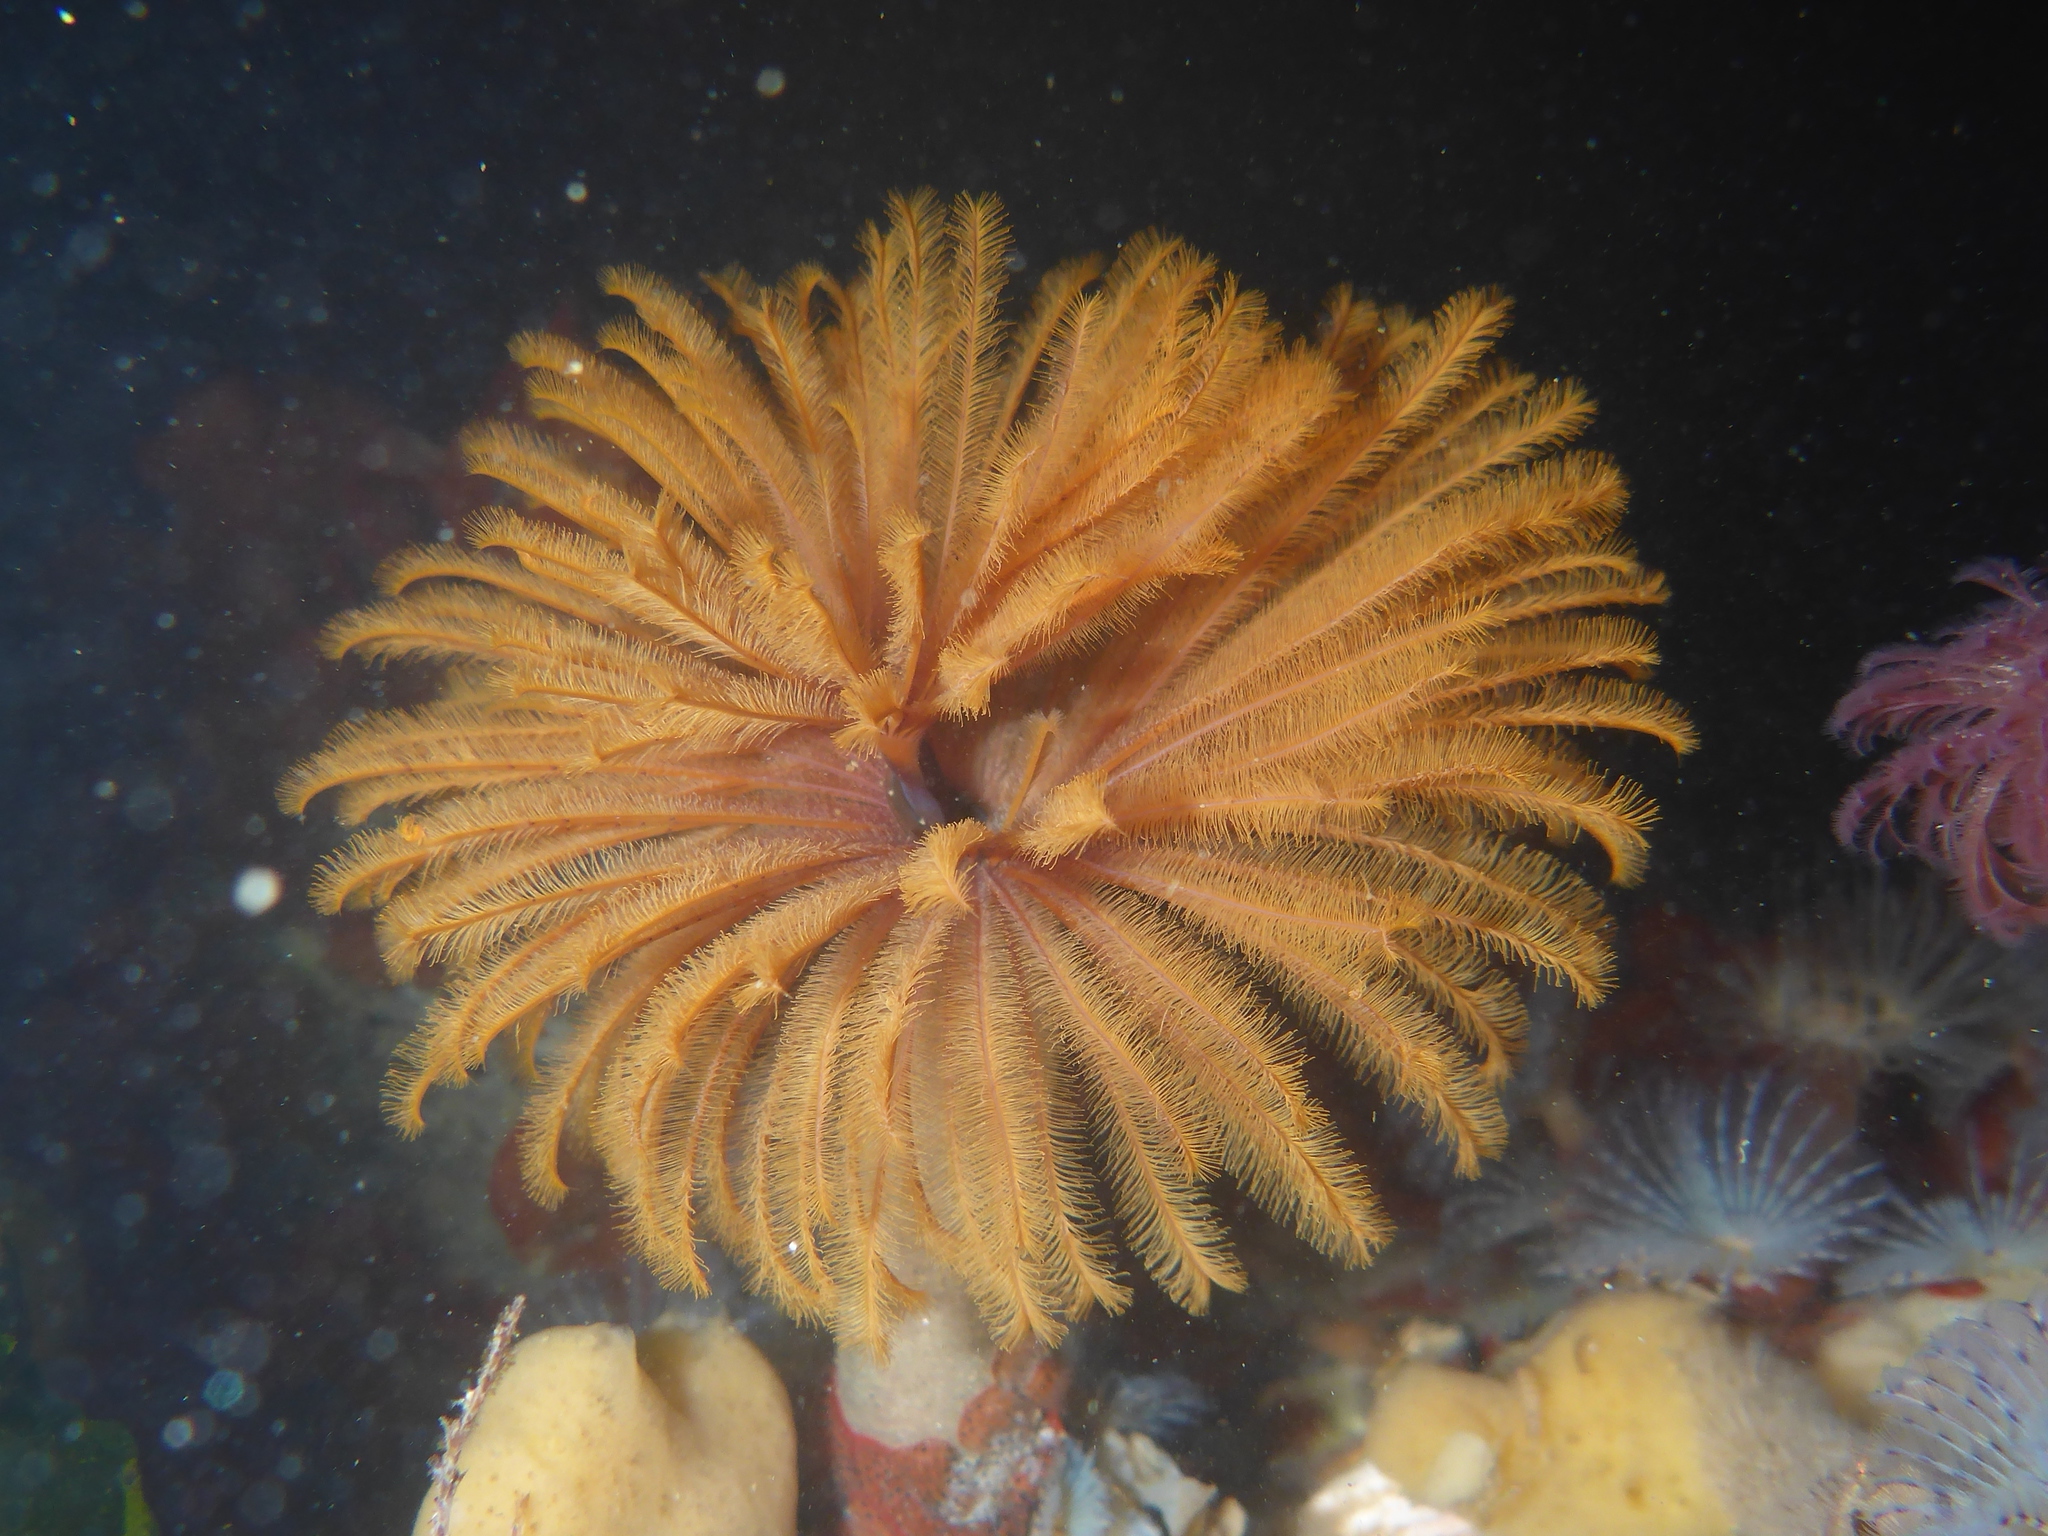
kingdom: Animalia
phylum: Annelida
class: Polychaeta
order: Sabellida
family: Sabellidae
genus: Eudistylia
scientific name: Eudistylia polymorpha
